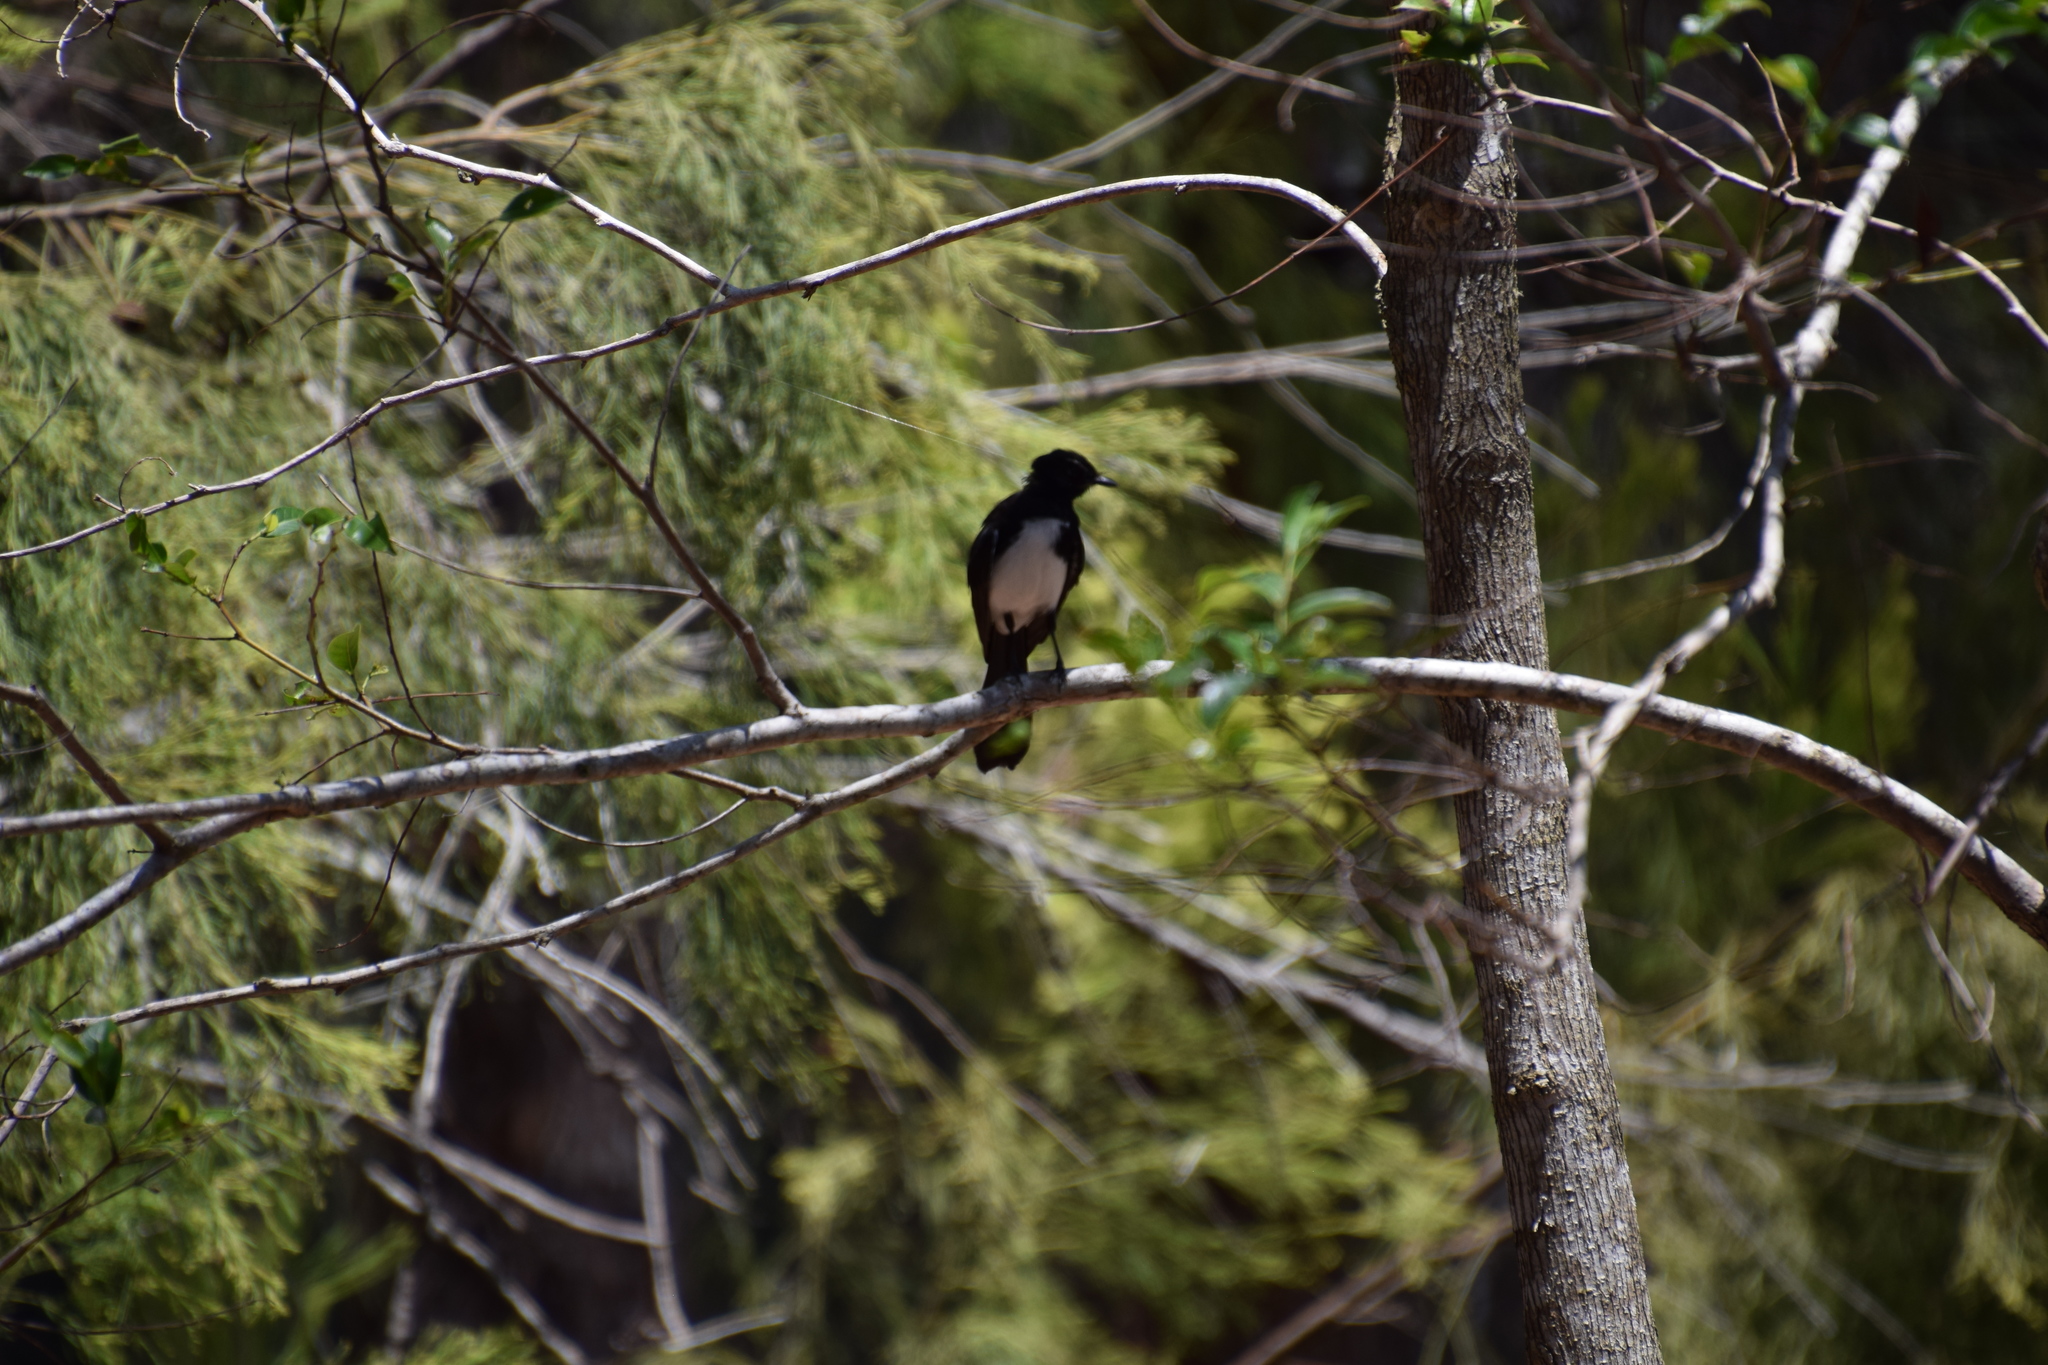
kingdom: Animalia
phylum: Chordata
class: Aves
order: Passeriformes
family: Rhipiduridae
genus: Rhipidura
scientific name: Rhipidura leucophrys
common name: Willie wagtail
